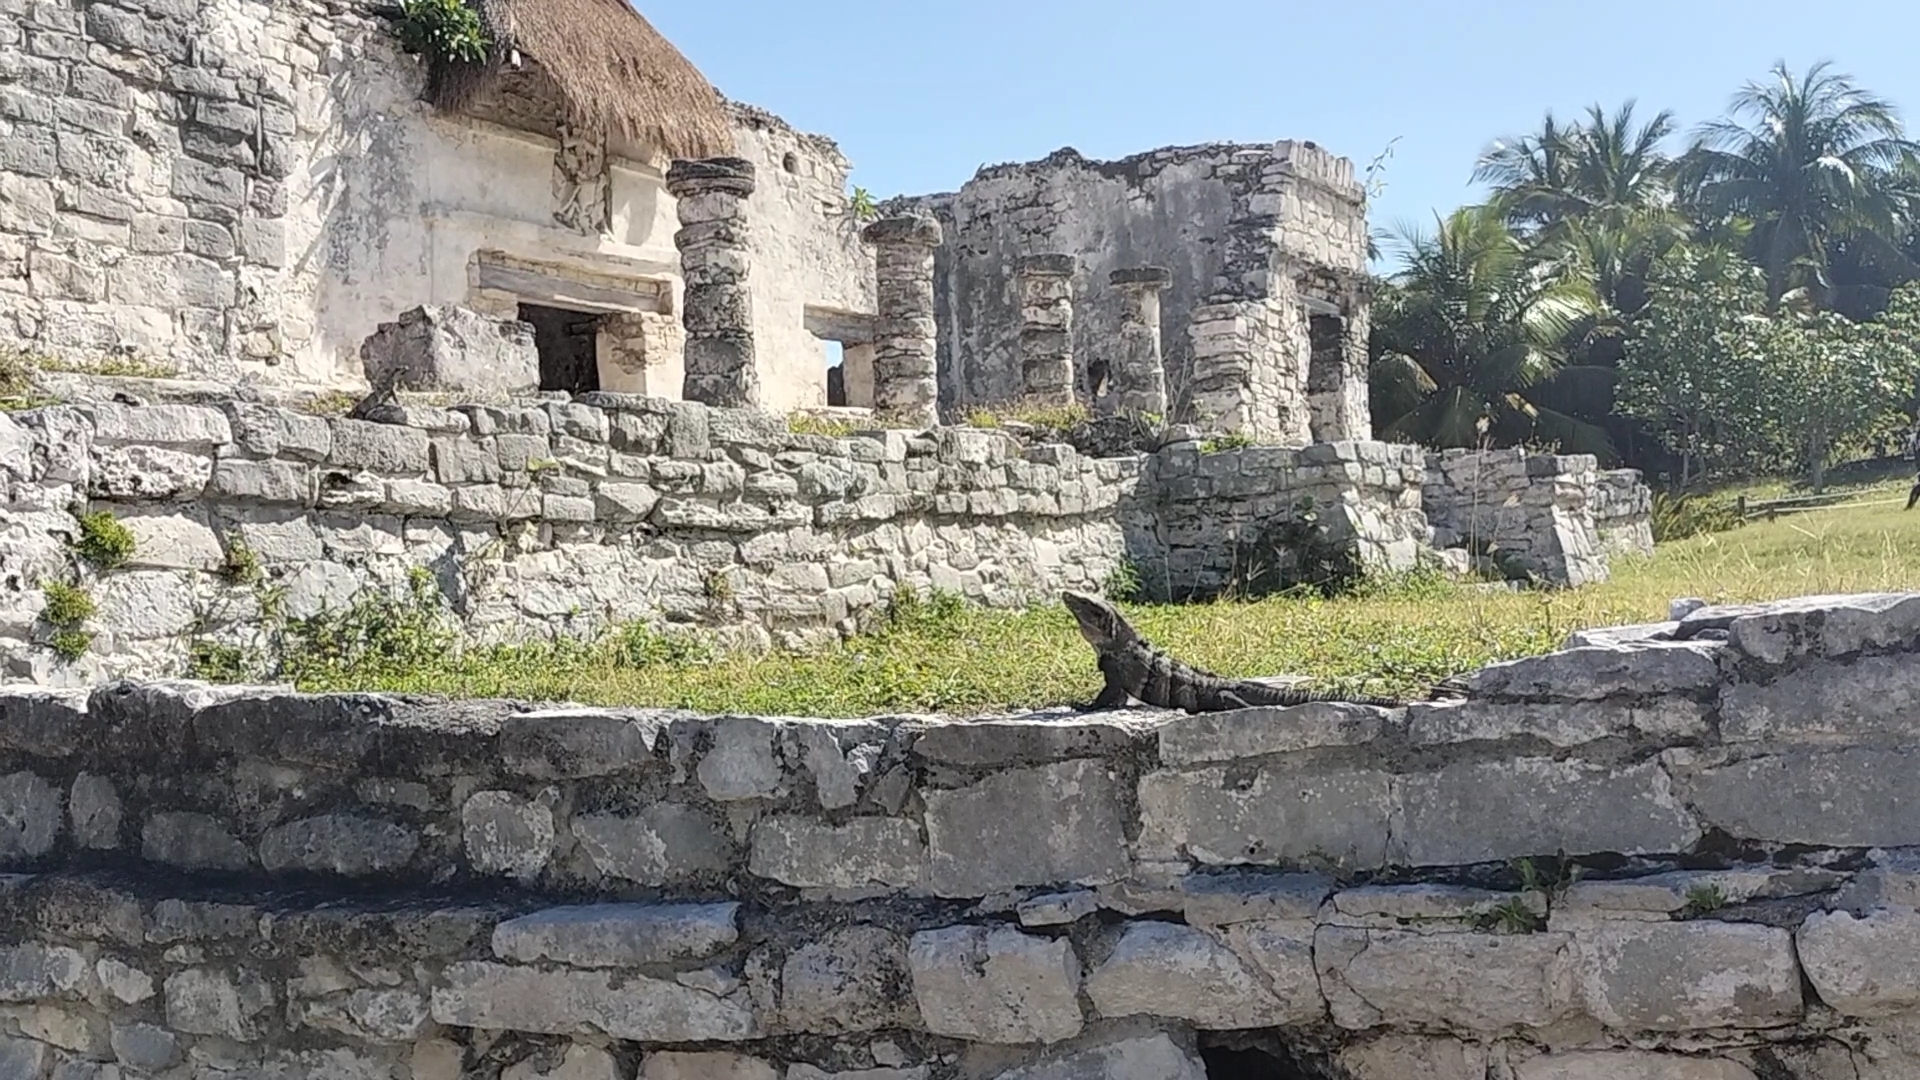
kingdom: Animalia
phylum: Chordata
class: Squamata
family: Iguanidae
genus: Ctenosaura
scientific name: Ctenosaura similis
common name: Black spiny-tailed iguana
